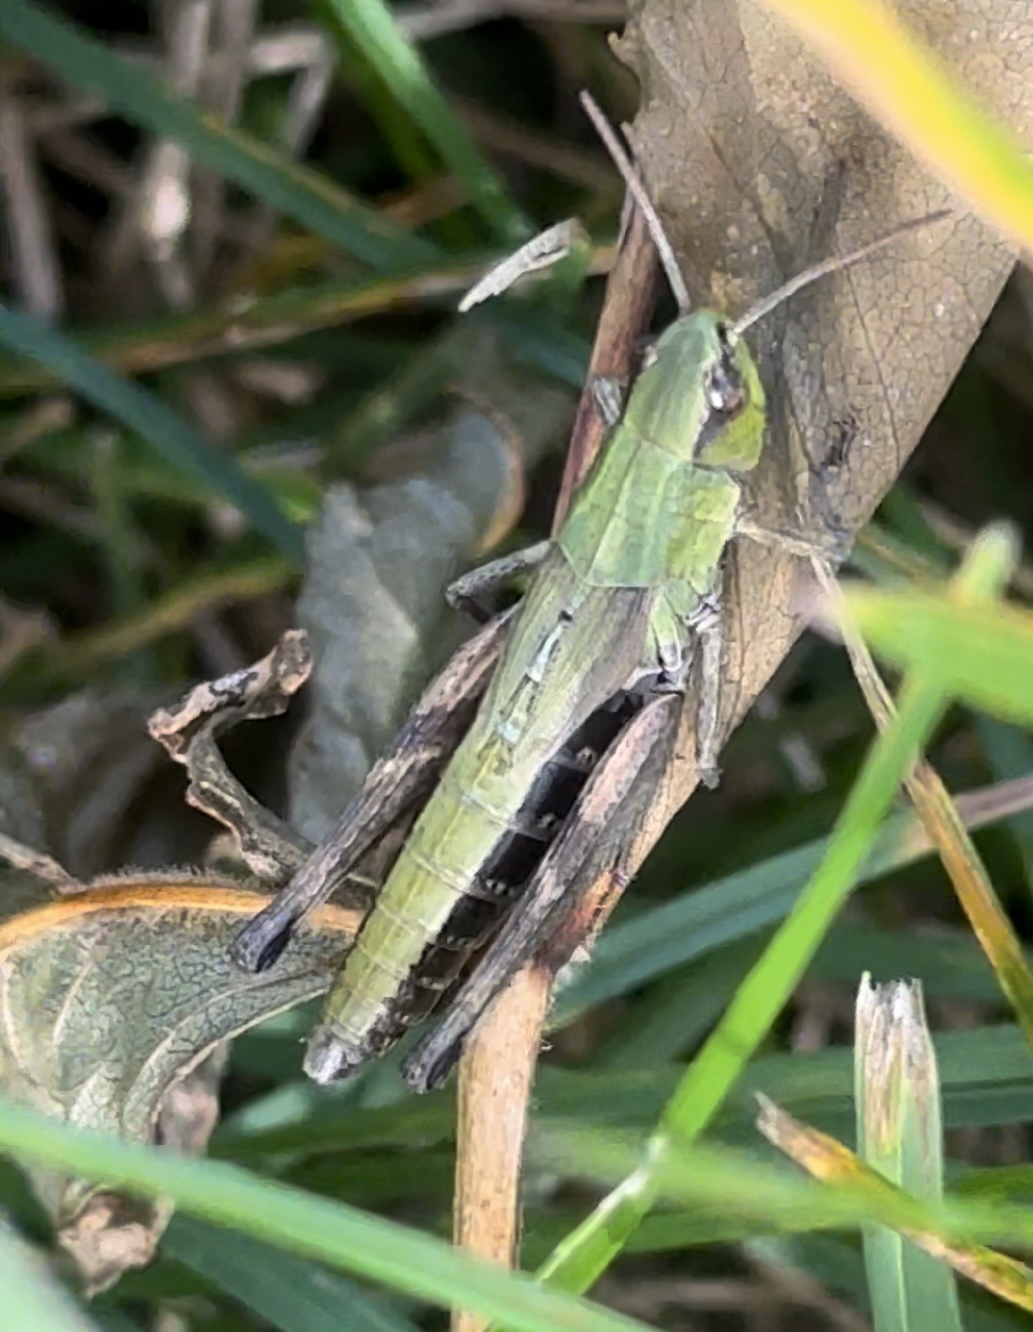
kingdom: Animalia
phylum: Arthropoda
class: Insecta
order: Orthoptera
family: Acrididae
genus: Pseudochorthippus
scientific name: Pseudochorthippus parallelus
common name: Meadow grasshopper
